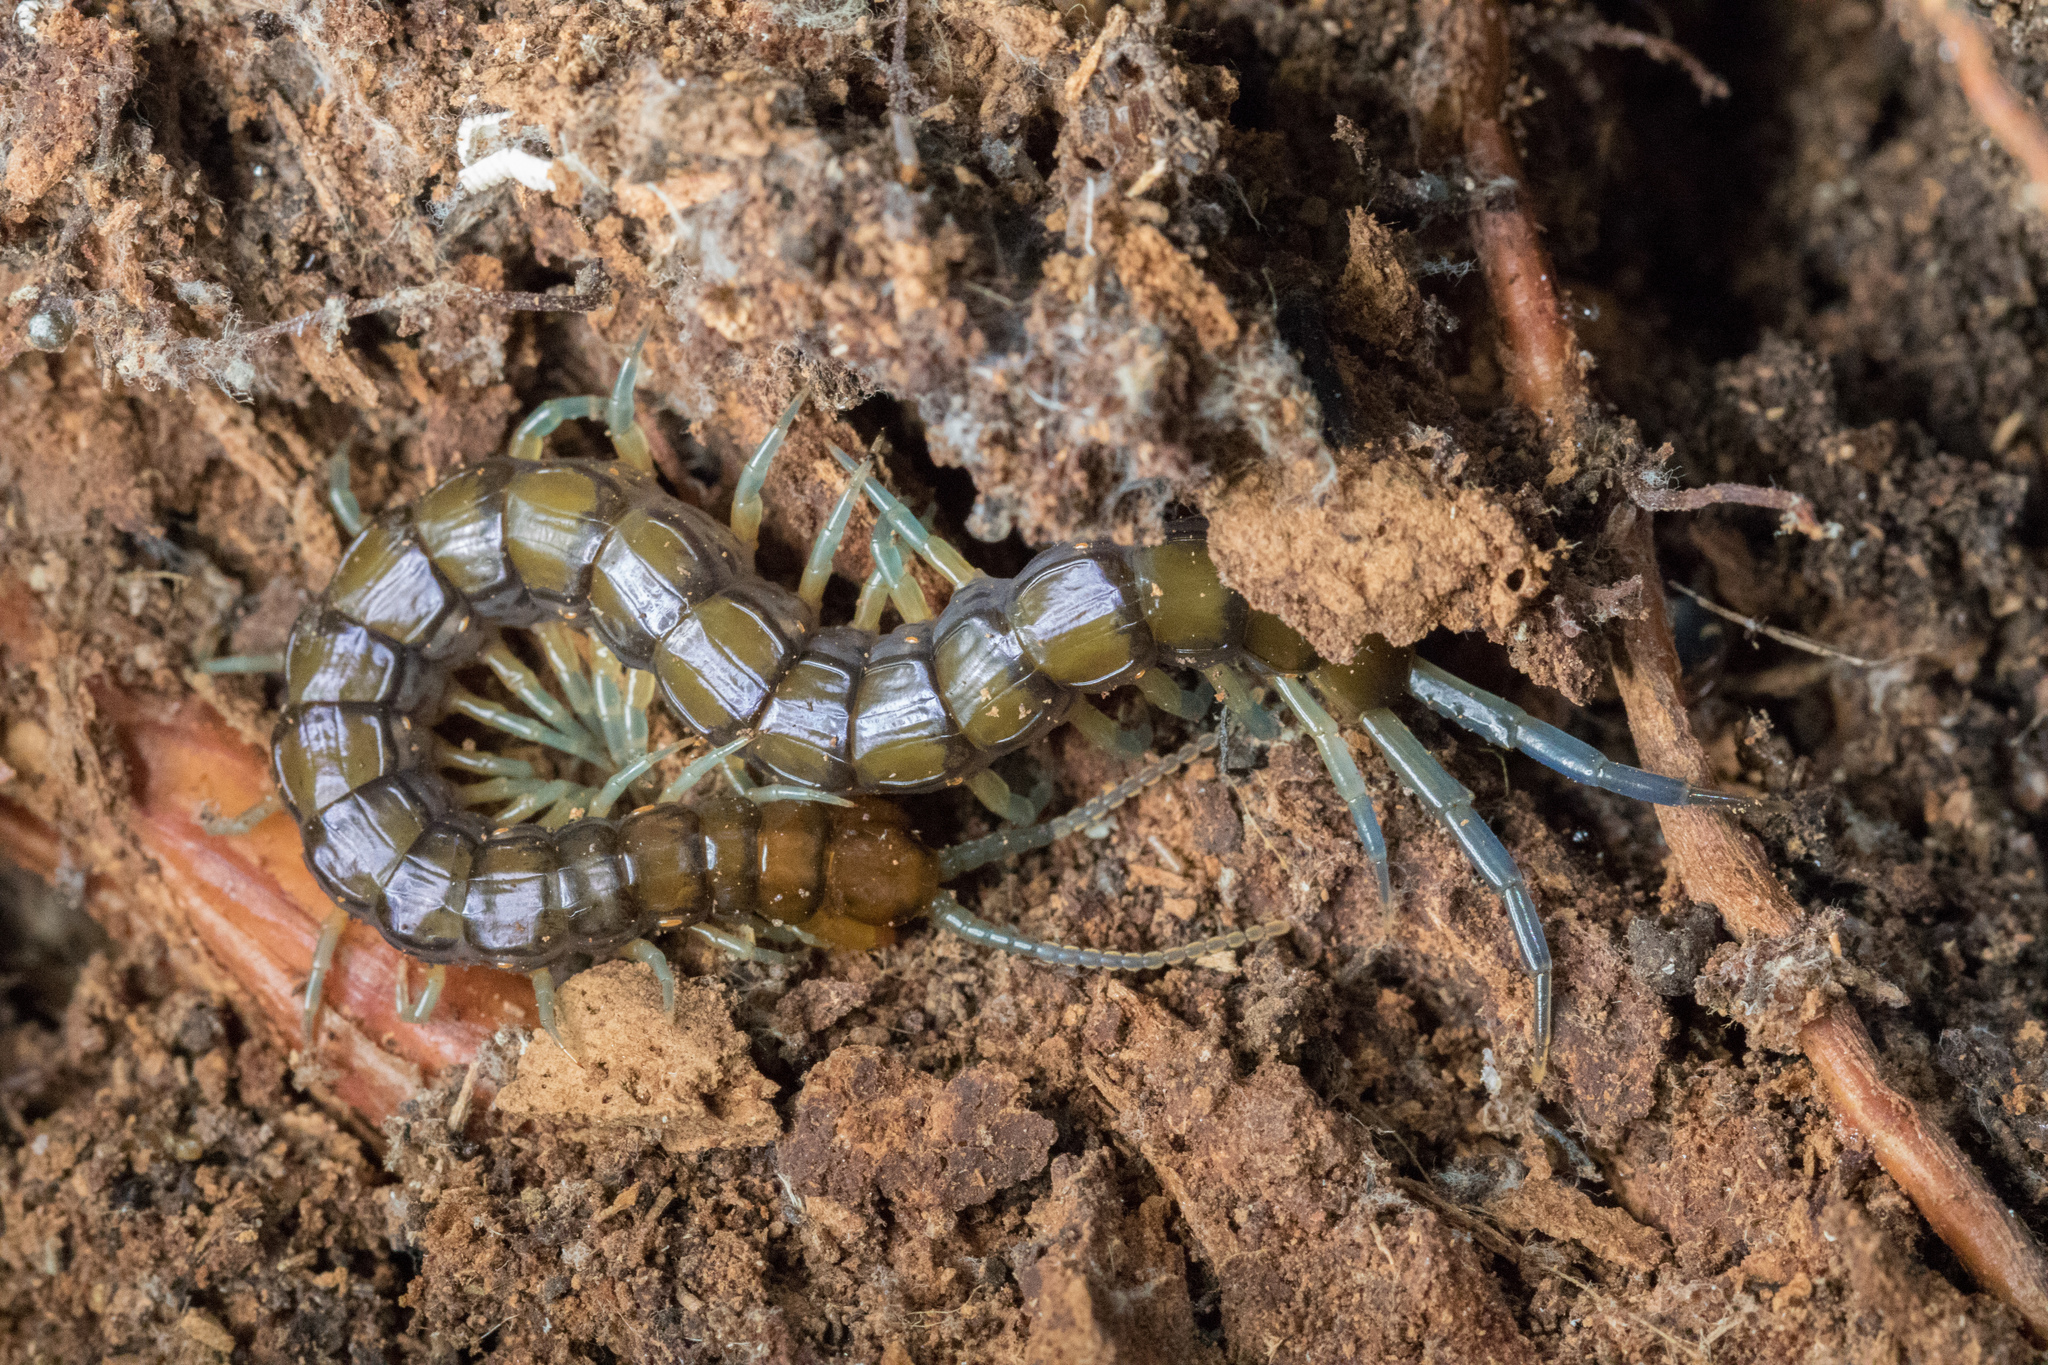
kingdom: Animalia
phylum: Arthropoda
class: Chilopoda
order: Scolopendromorpha
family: Scolopendridae
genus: Cormocephalus
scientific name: Cormocephalus rubriceps
